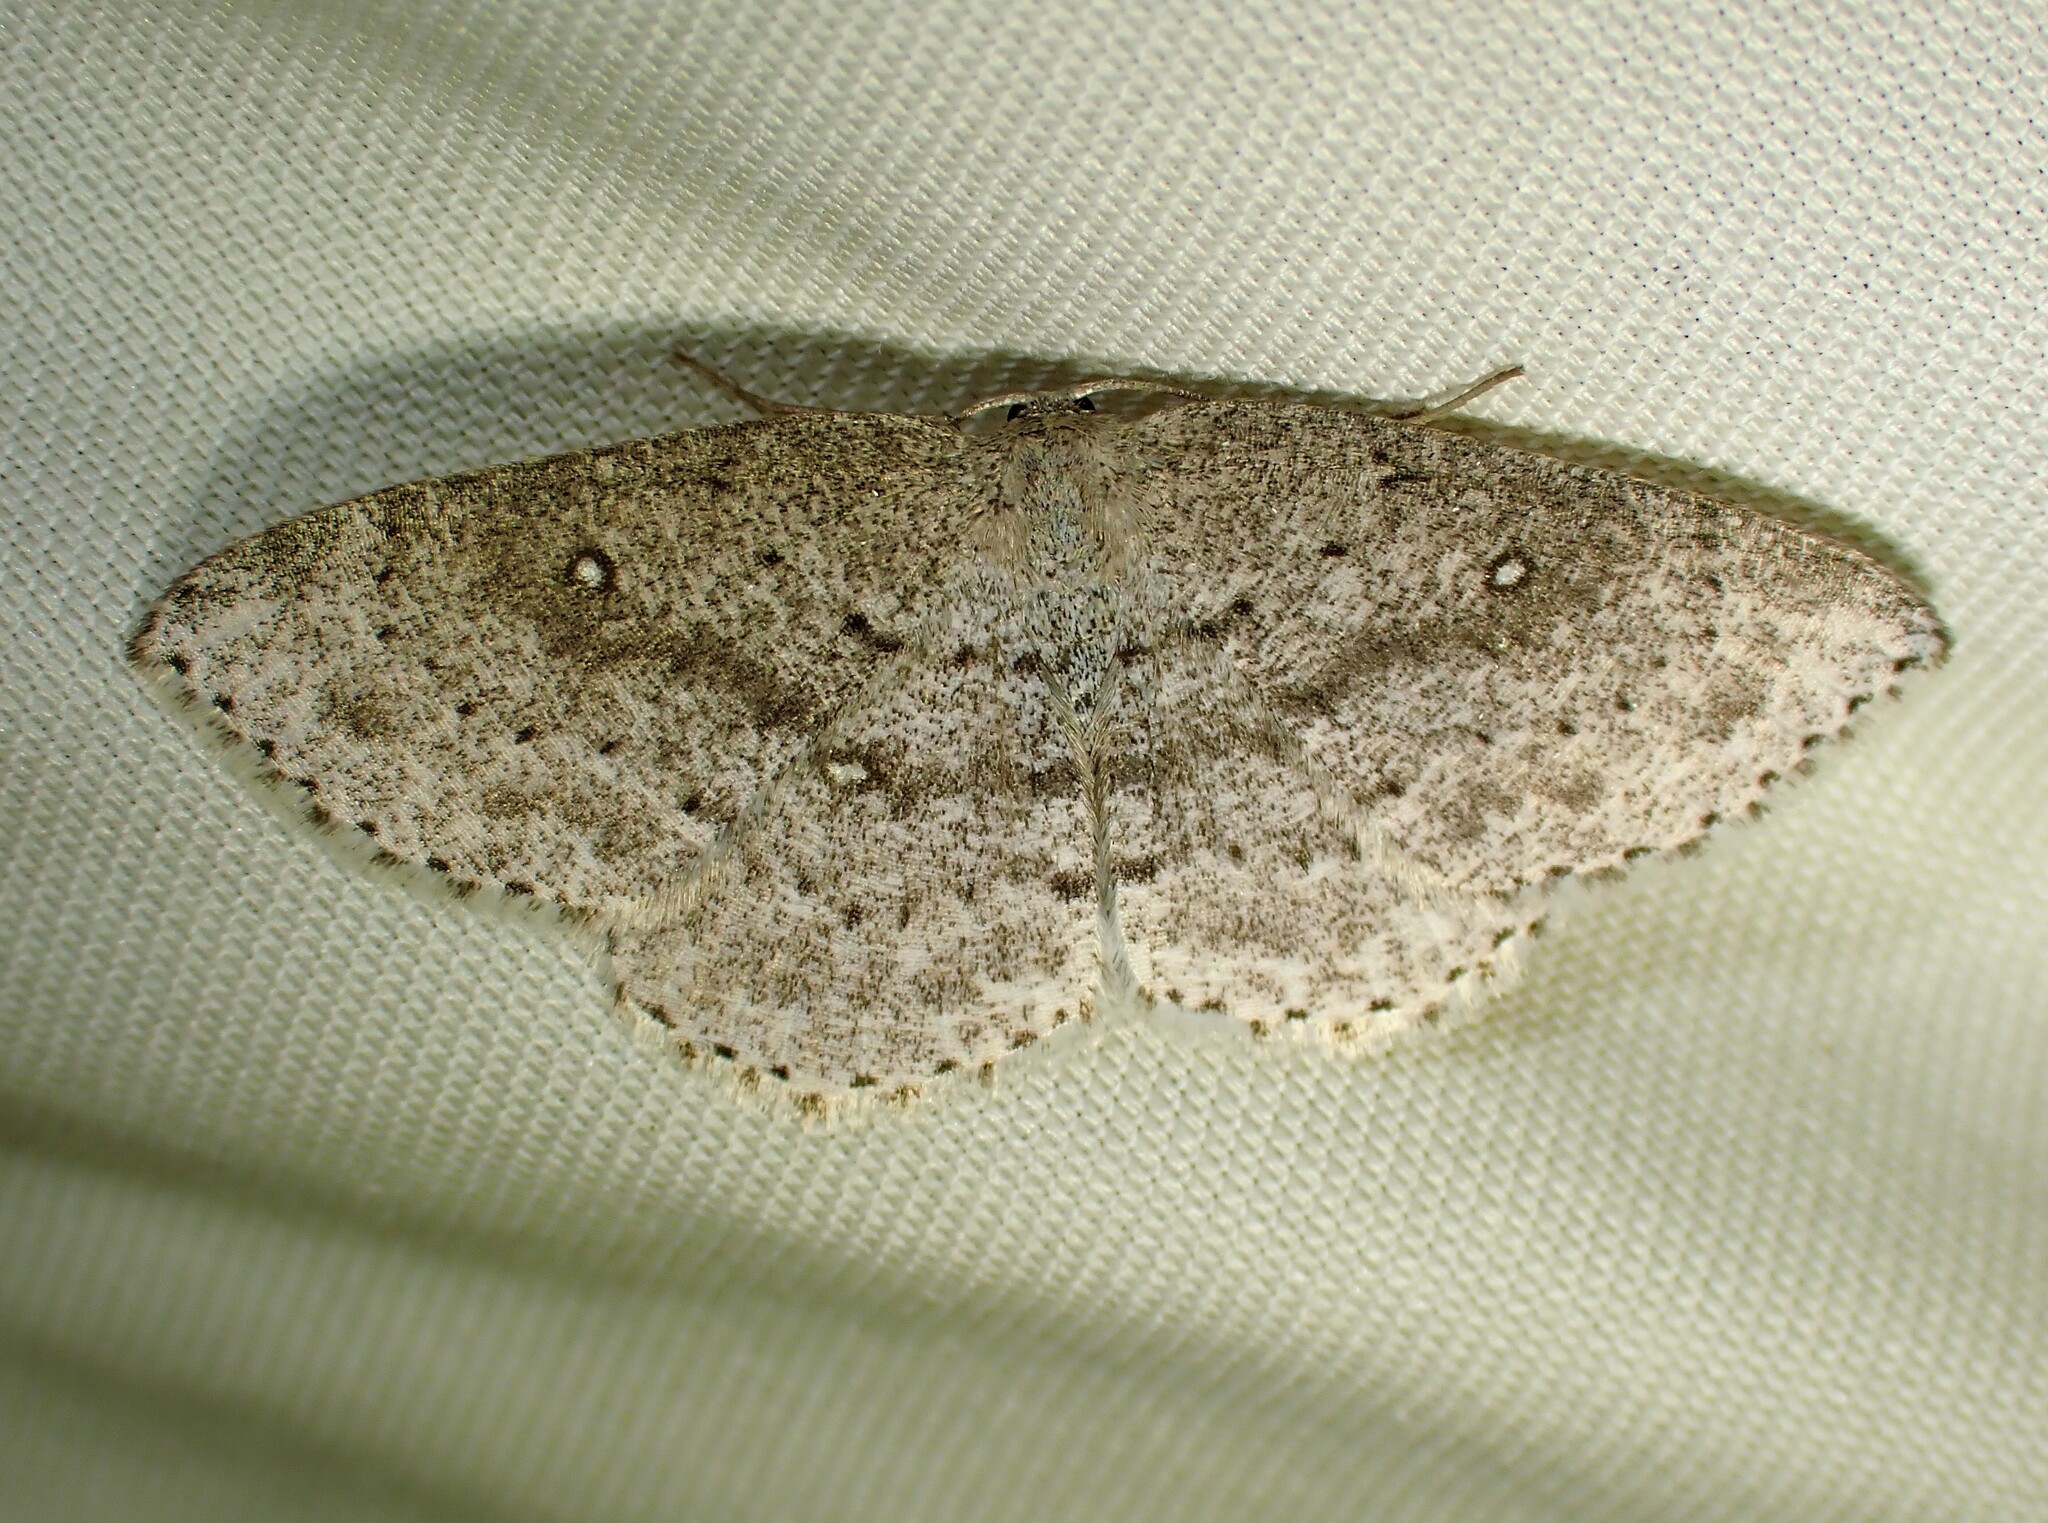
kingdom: Animalia
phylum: Arthropoda
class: Insecta
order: Lepidoptera
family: Geometridae
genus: Cyclophora
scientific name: Cyclophora pendulinaria
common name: Sweet fern geometer
